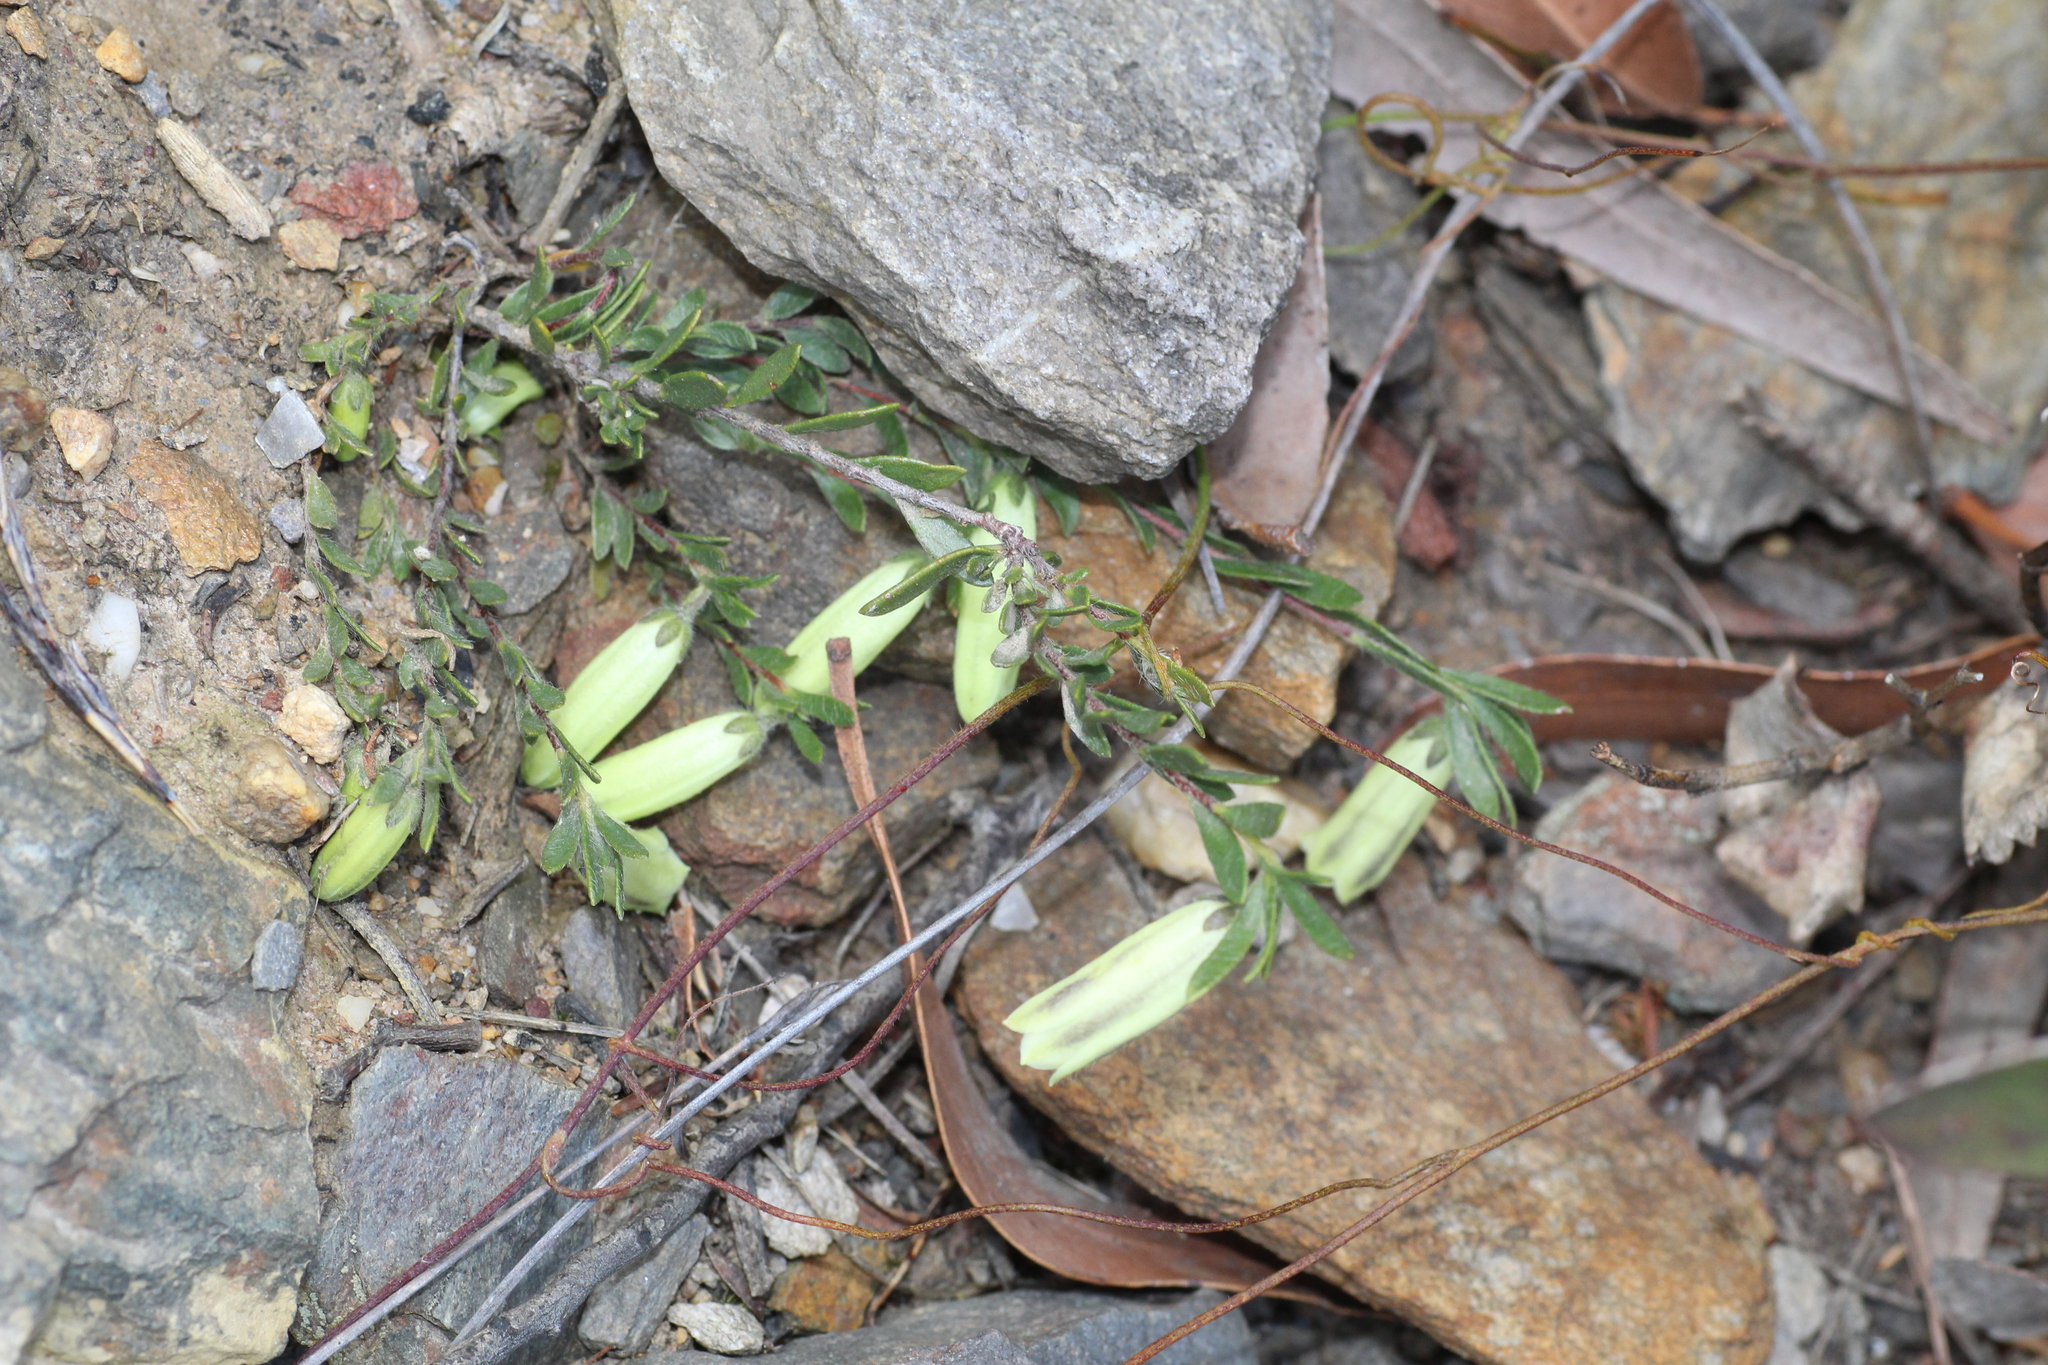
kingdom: Plantae
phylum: Tracheophyta
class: Magnoliopsida
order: Sapindales
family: Rutaceae
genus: Muiriantha
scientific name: Muiriantha hassellii
